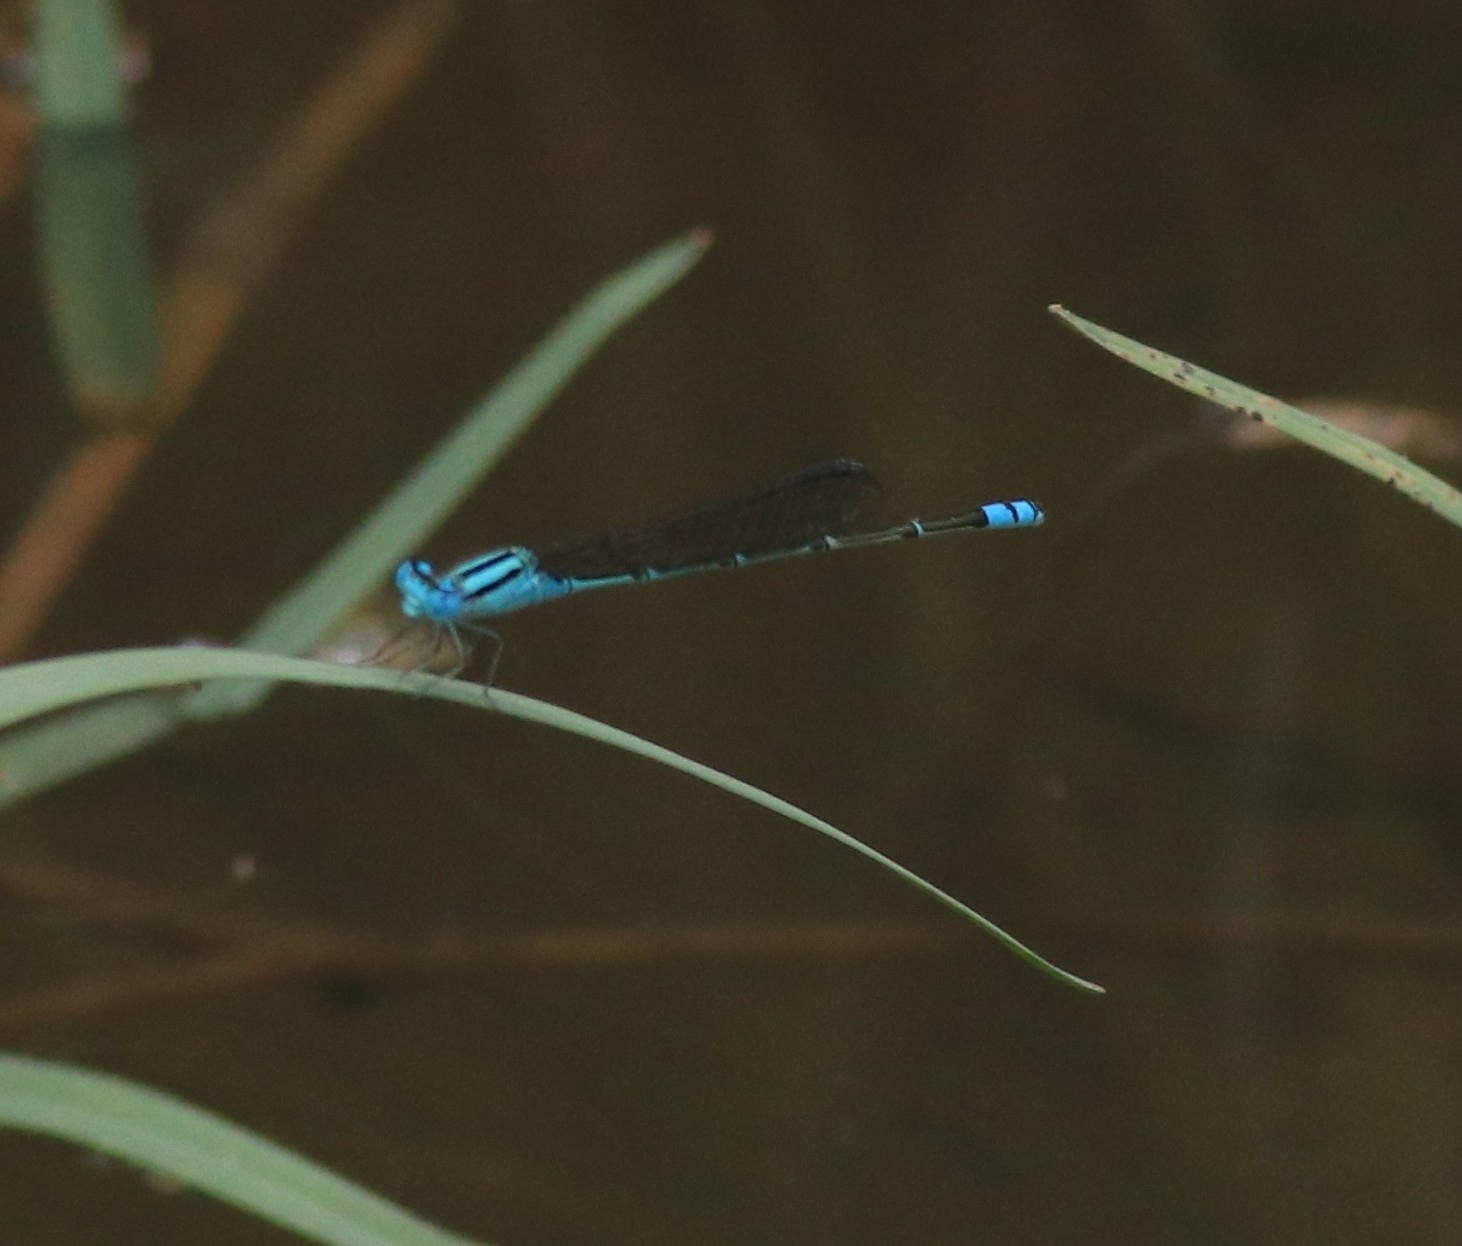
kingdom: Animalia
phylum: Arthropoda
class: Insecta
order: Odonata
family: Coenagrionidae
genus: Pseudagrion
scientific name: Pseudagrion microcephalum
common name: Blue riverdamsel
